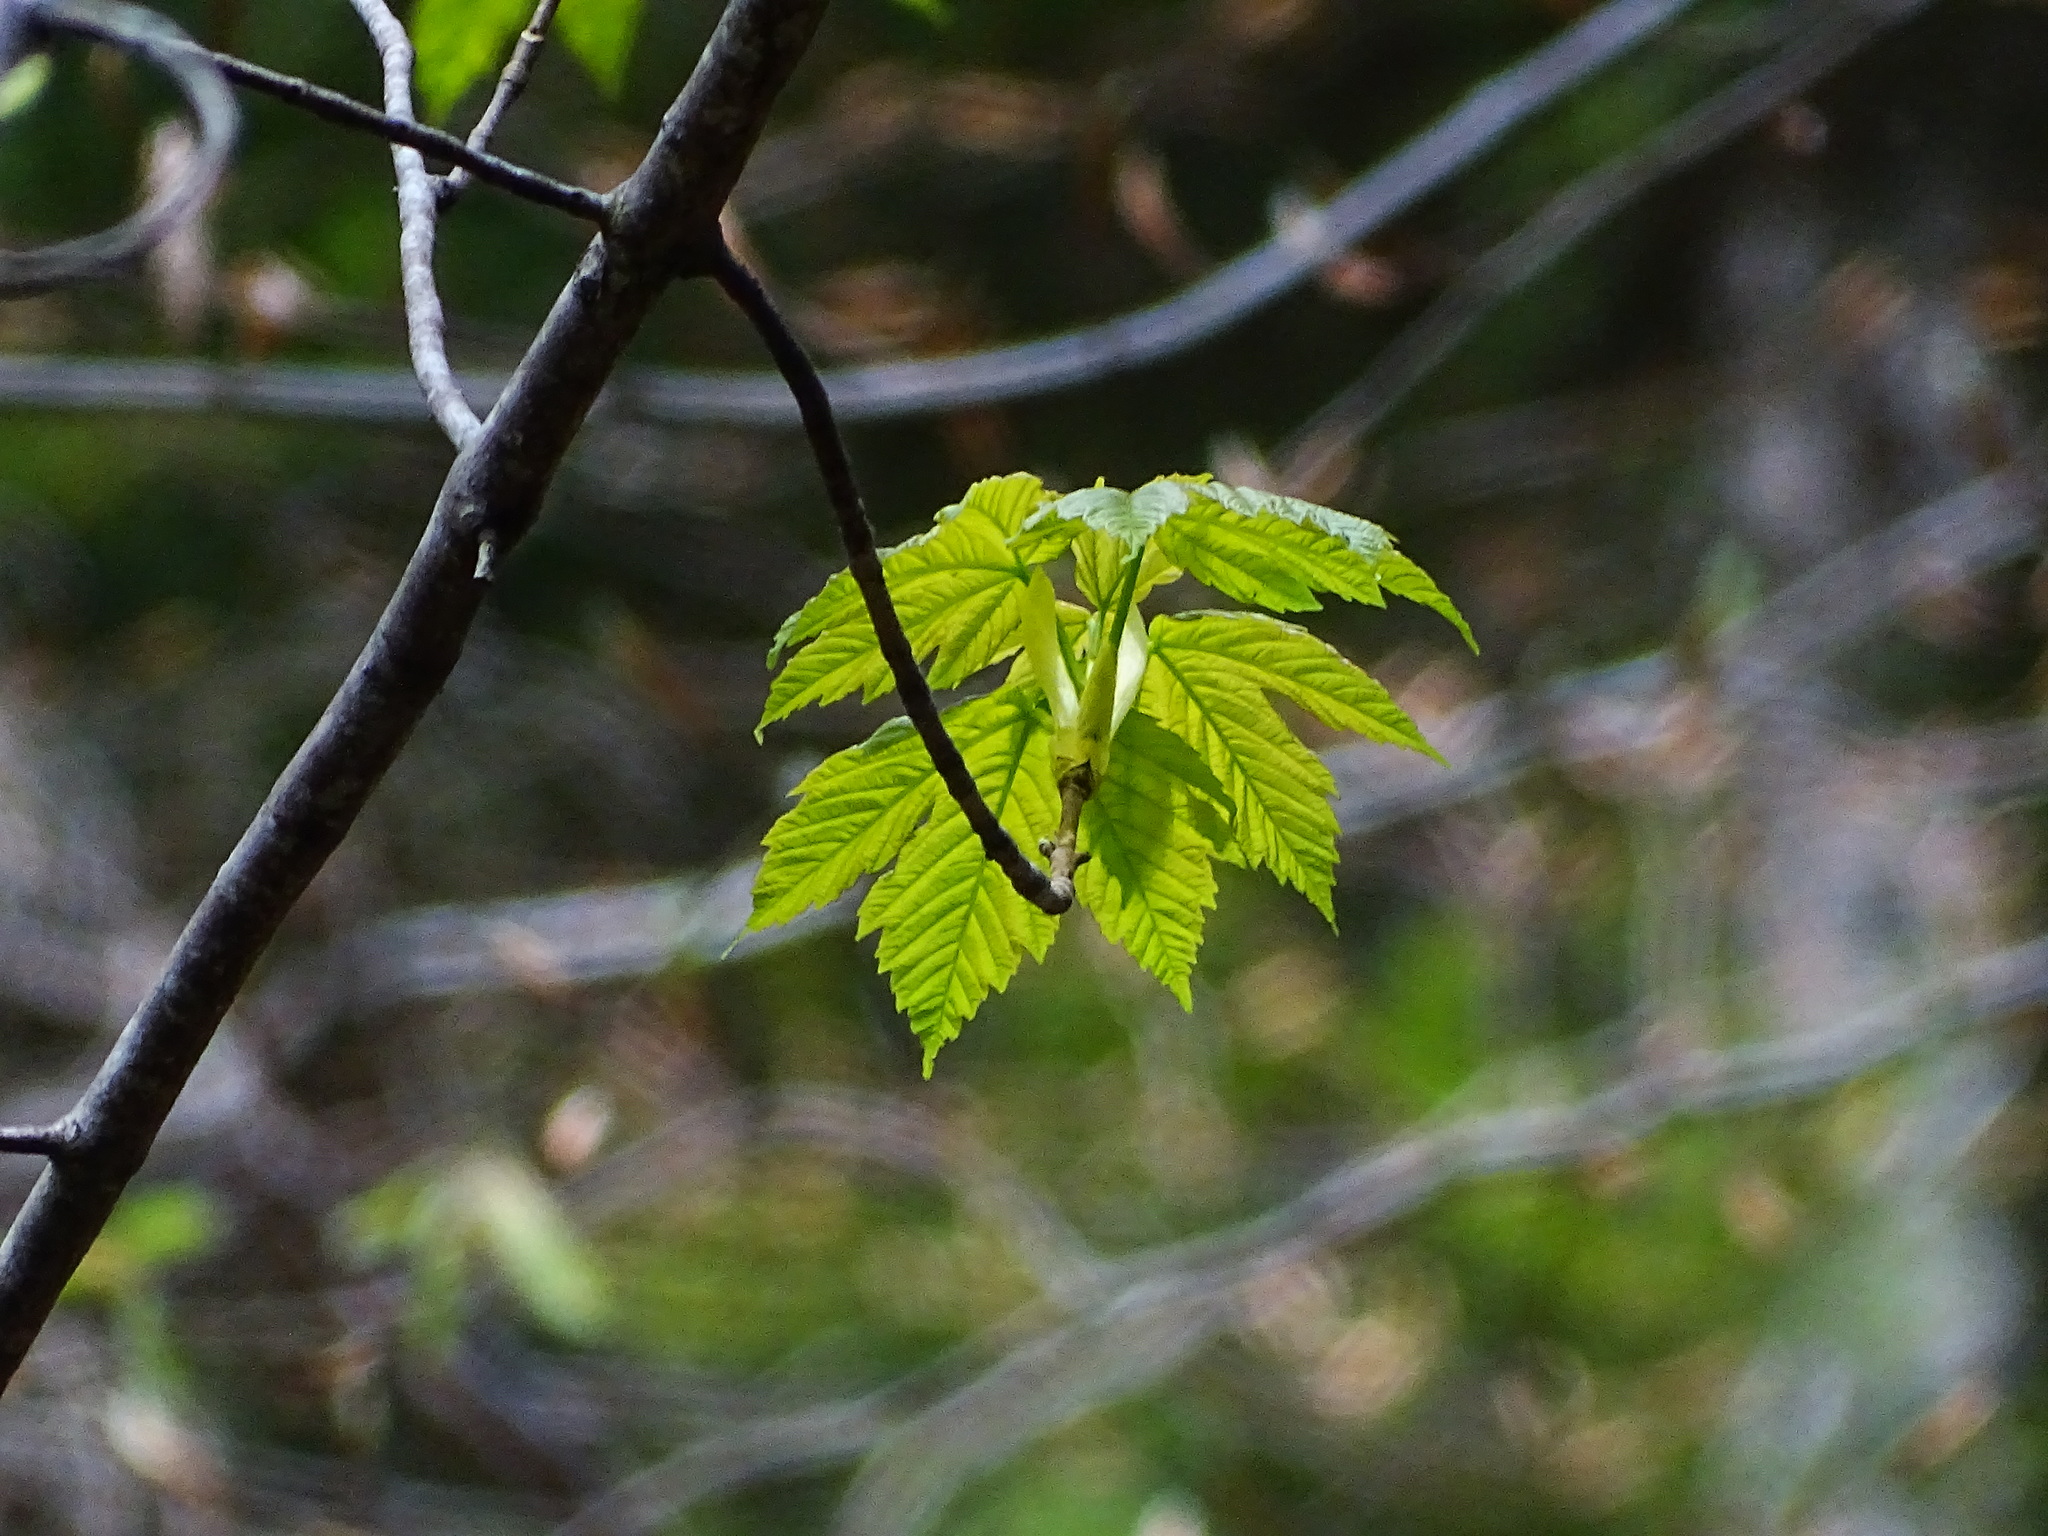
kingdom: Plantae
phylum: Tracheophyta
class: Magnoliopsida
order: Sapindales
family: Sapindaceae
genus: Acer
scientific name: Acer pseudoplatanus
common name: Sycamore
